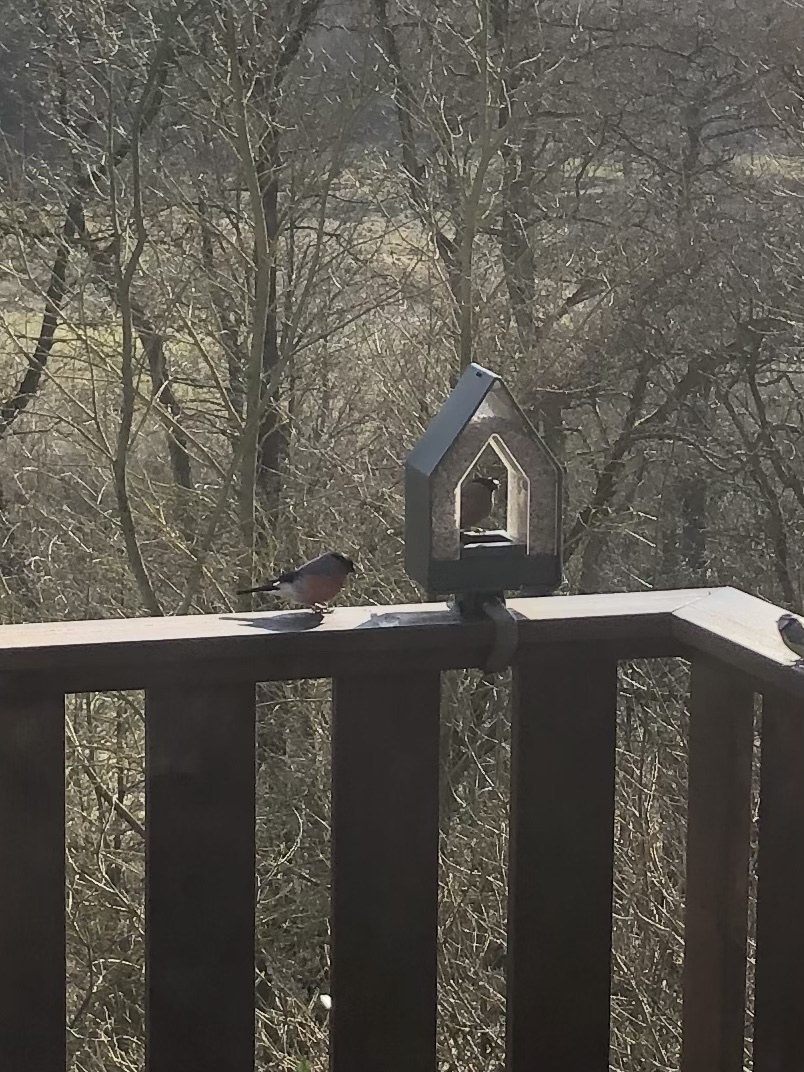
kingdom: Animalia
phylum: Chordata
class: Aves
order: Passeriformes
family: Fringillidae
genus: Pyrrhula
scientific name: Pyrrhula pyrrhula
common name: Eurasian bullfinch
